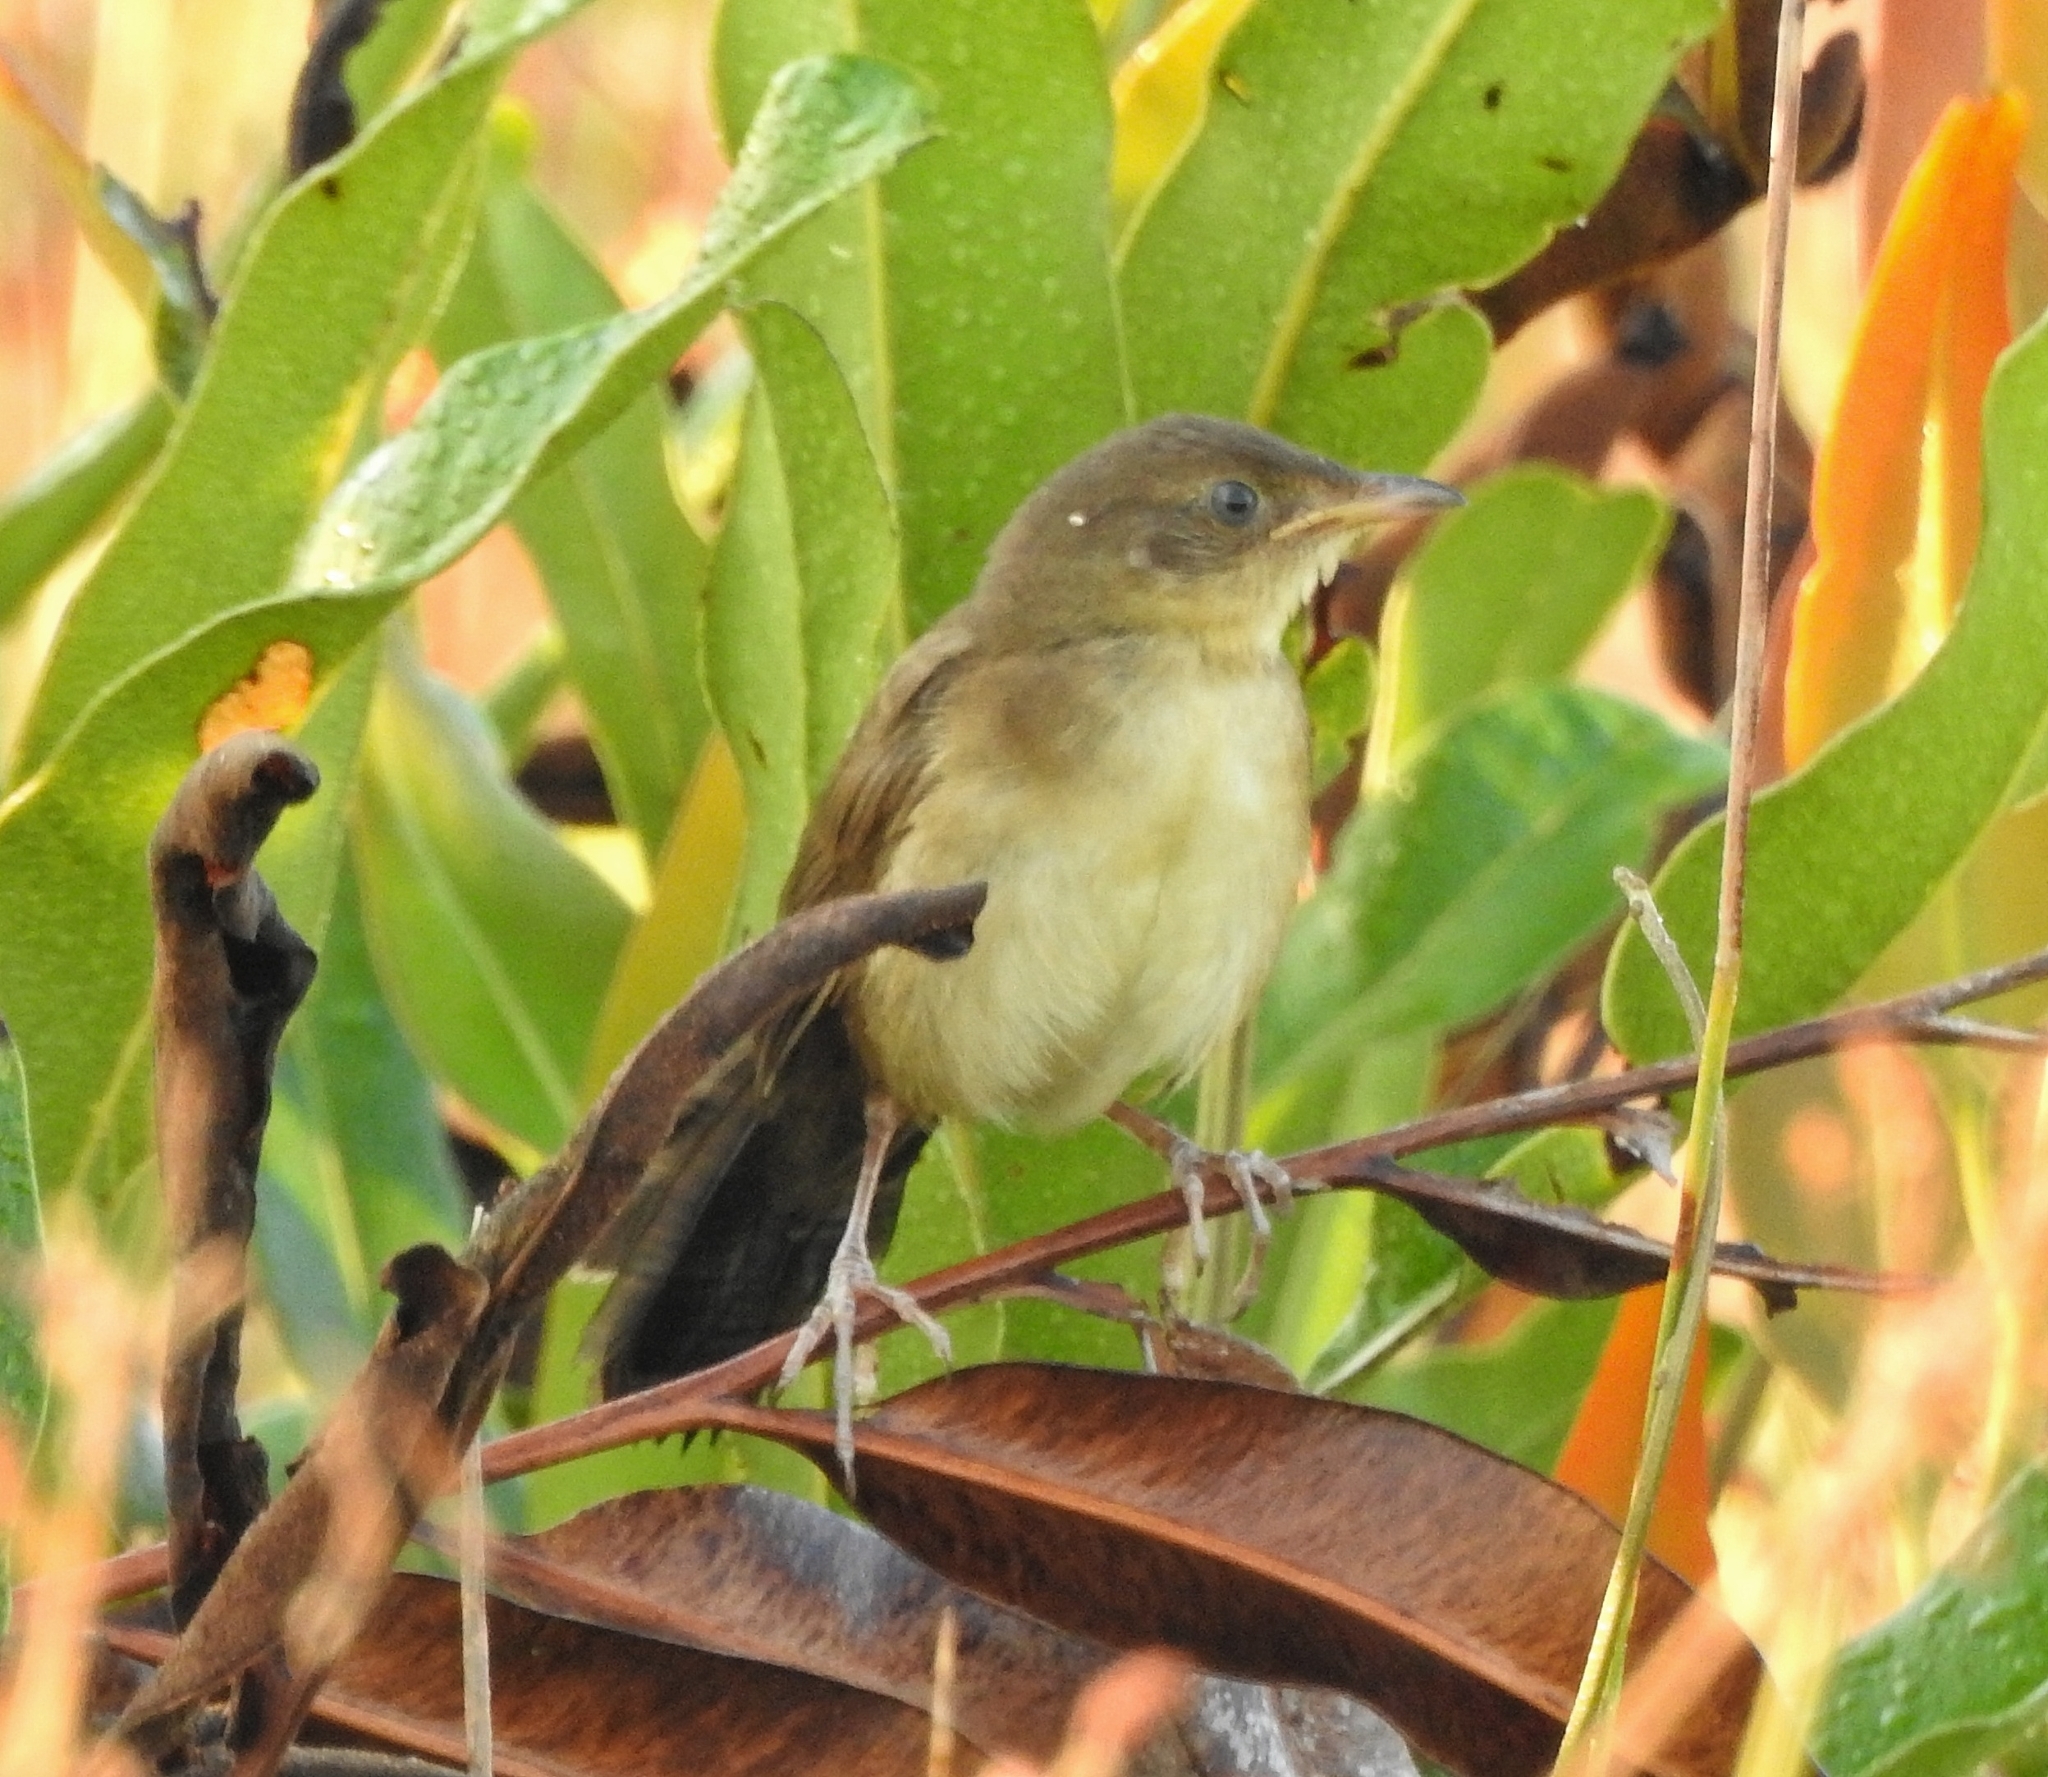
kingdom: Animalia
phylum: Chordata
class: Aves
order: Passeriformes
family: Locustellidae
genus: Schoenicola
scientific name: Schoenicola platyurus
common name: Broad-tailed grassbird
